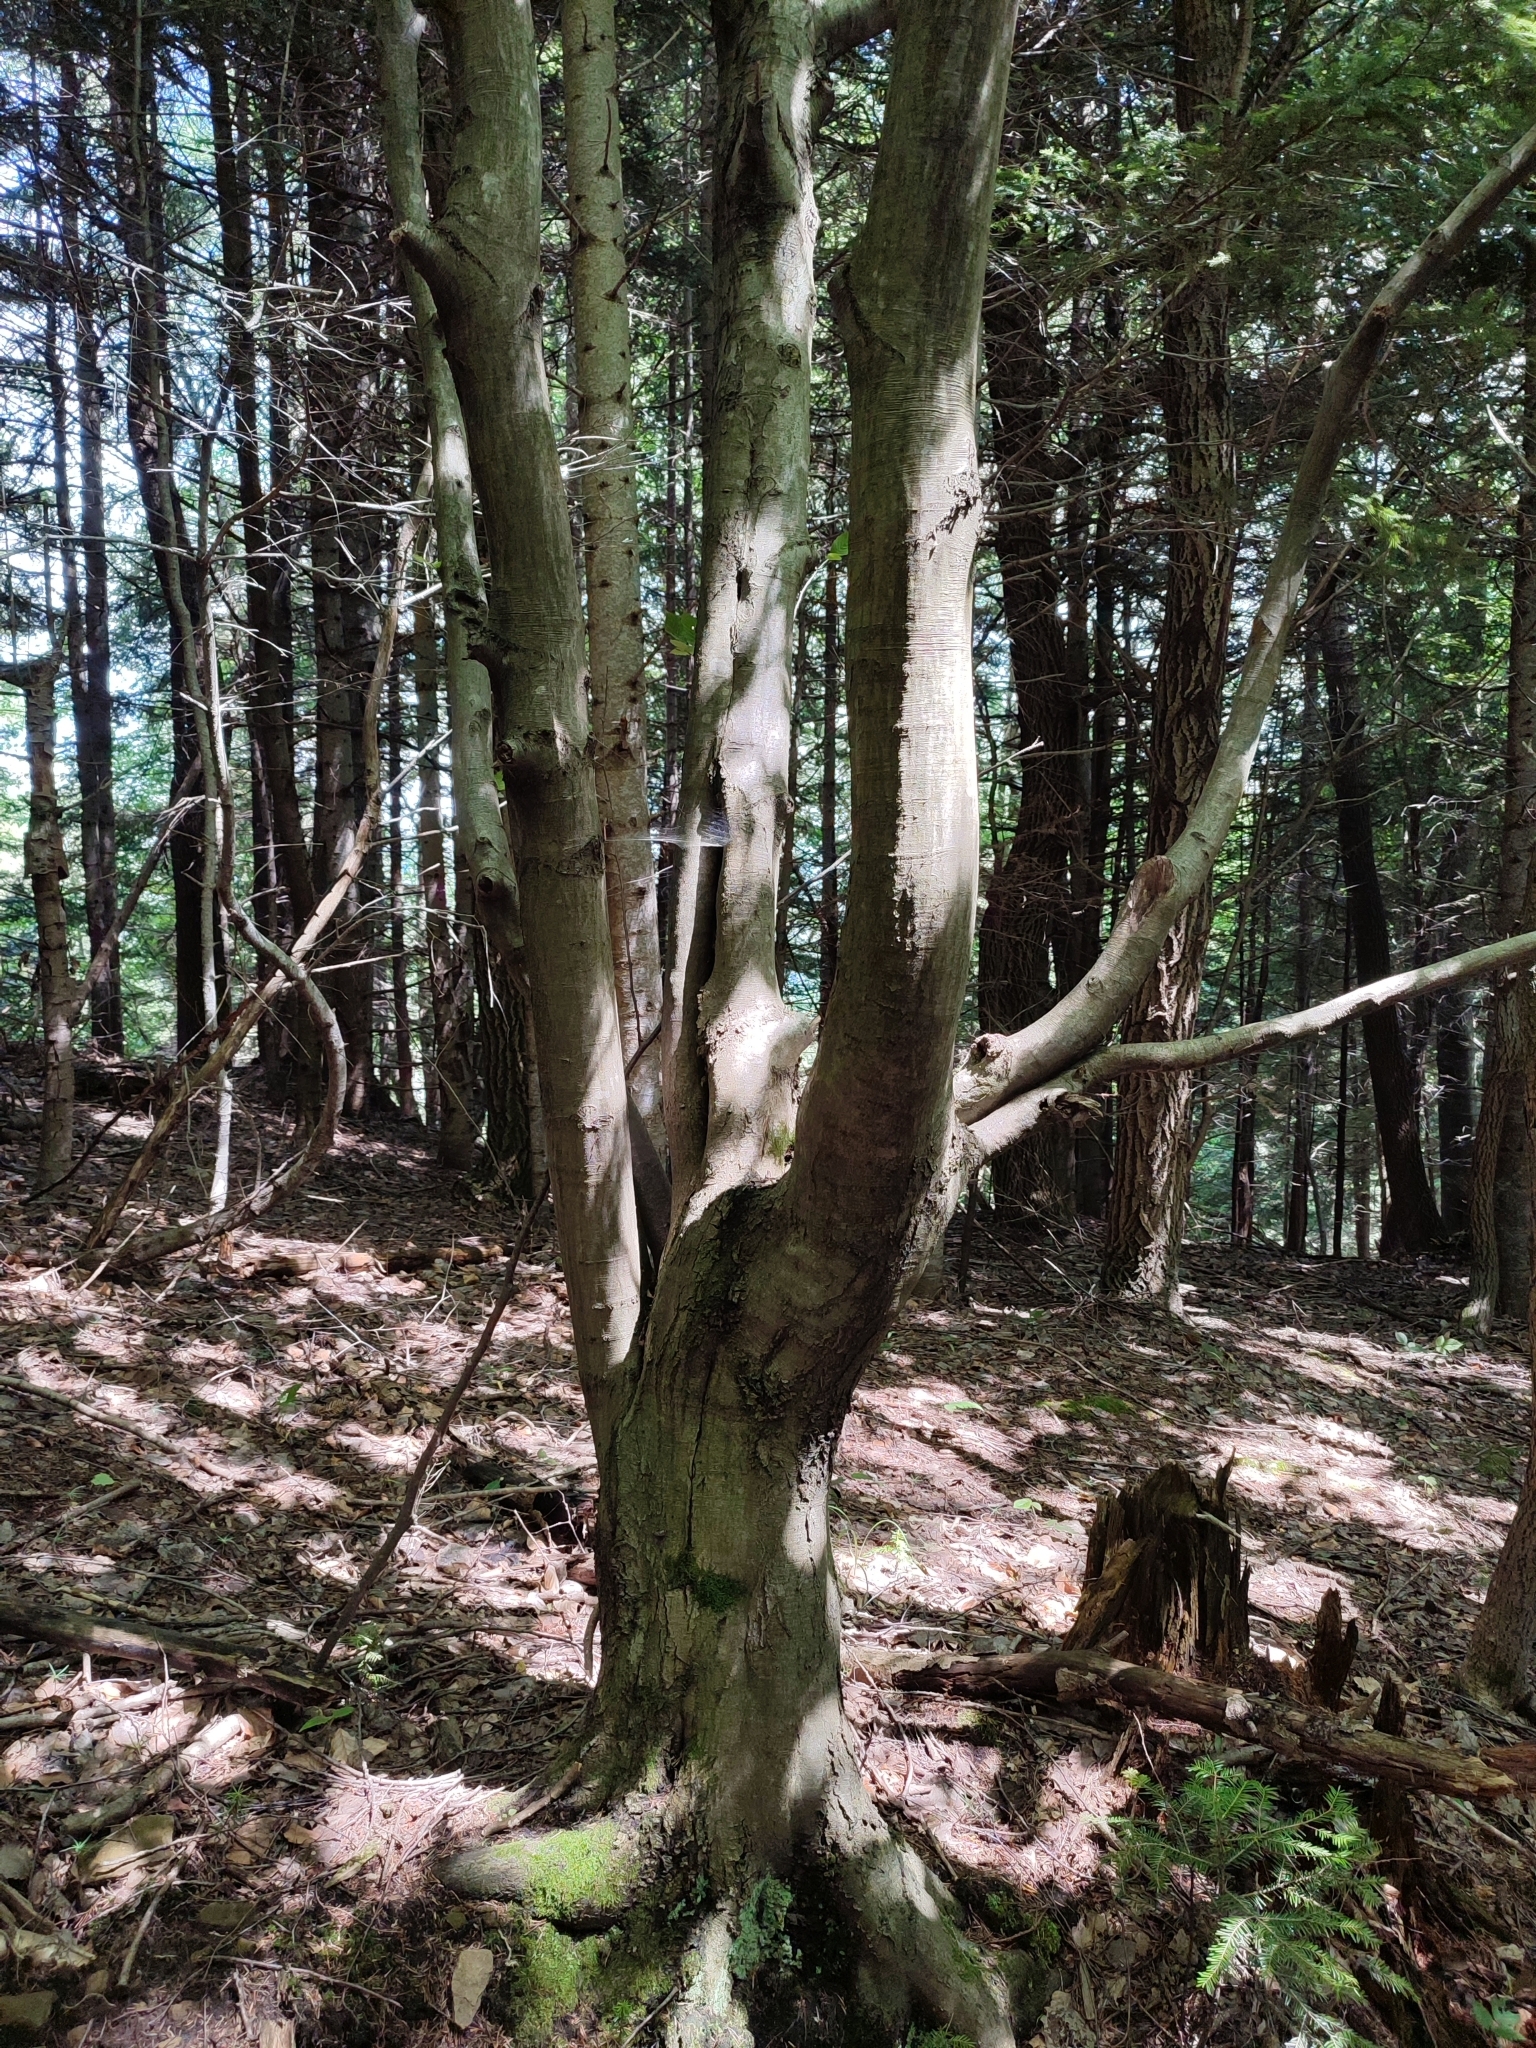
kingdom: Plantae
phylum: Tracheophyta
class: Magnoliopsida
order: Fagales
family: Fagaceae
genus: Fagus
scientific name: Fagus sylvatica
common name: Beech
